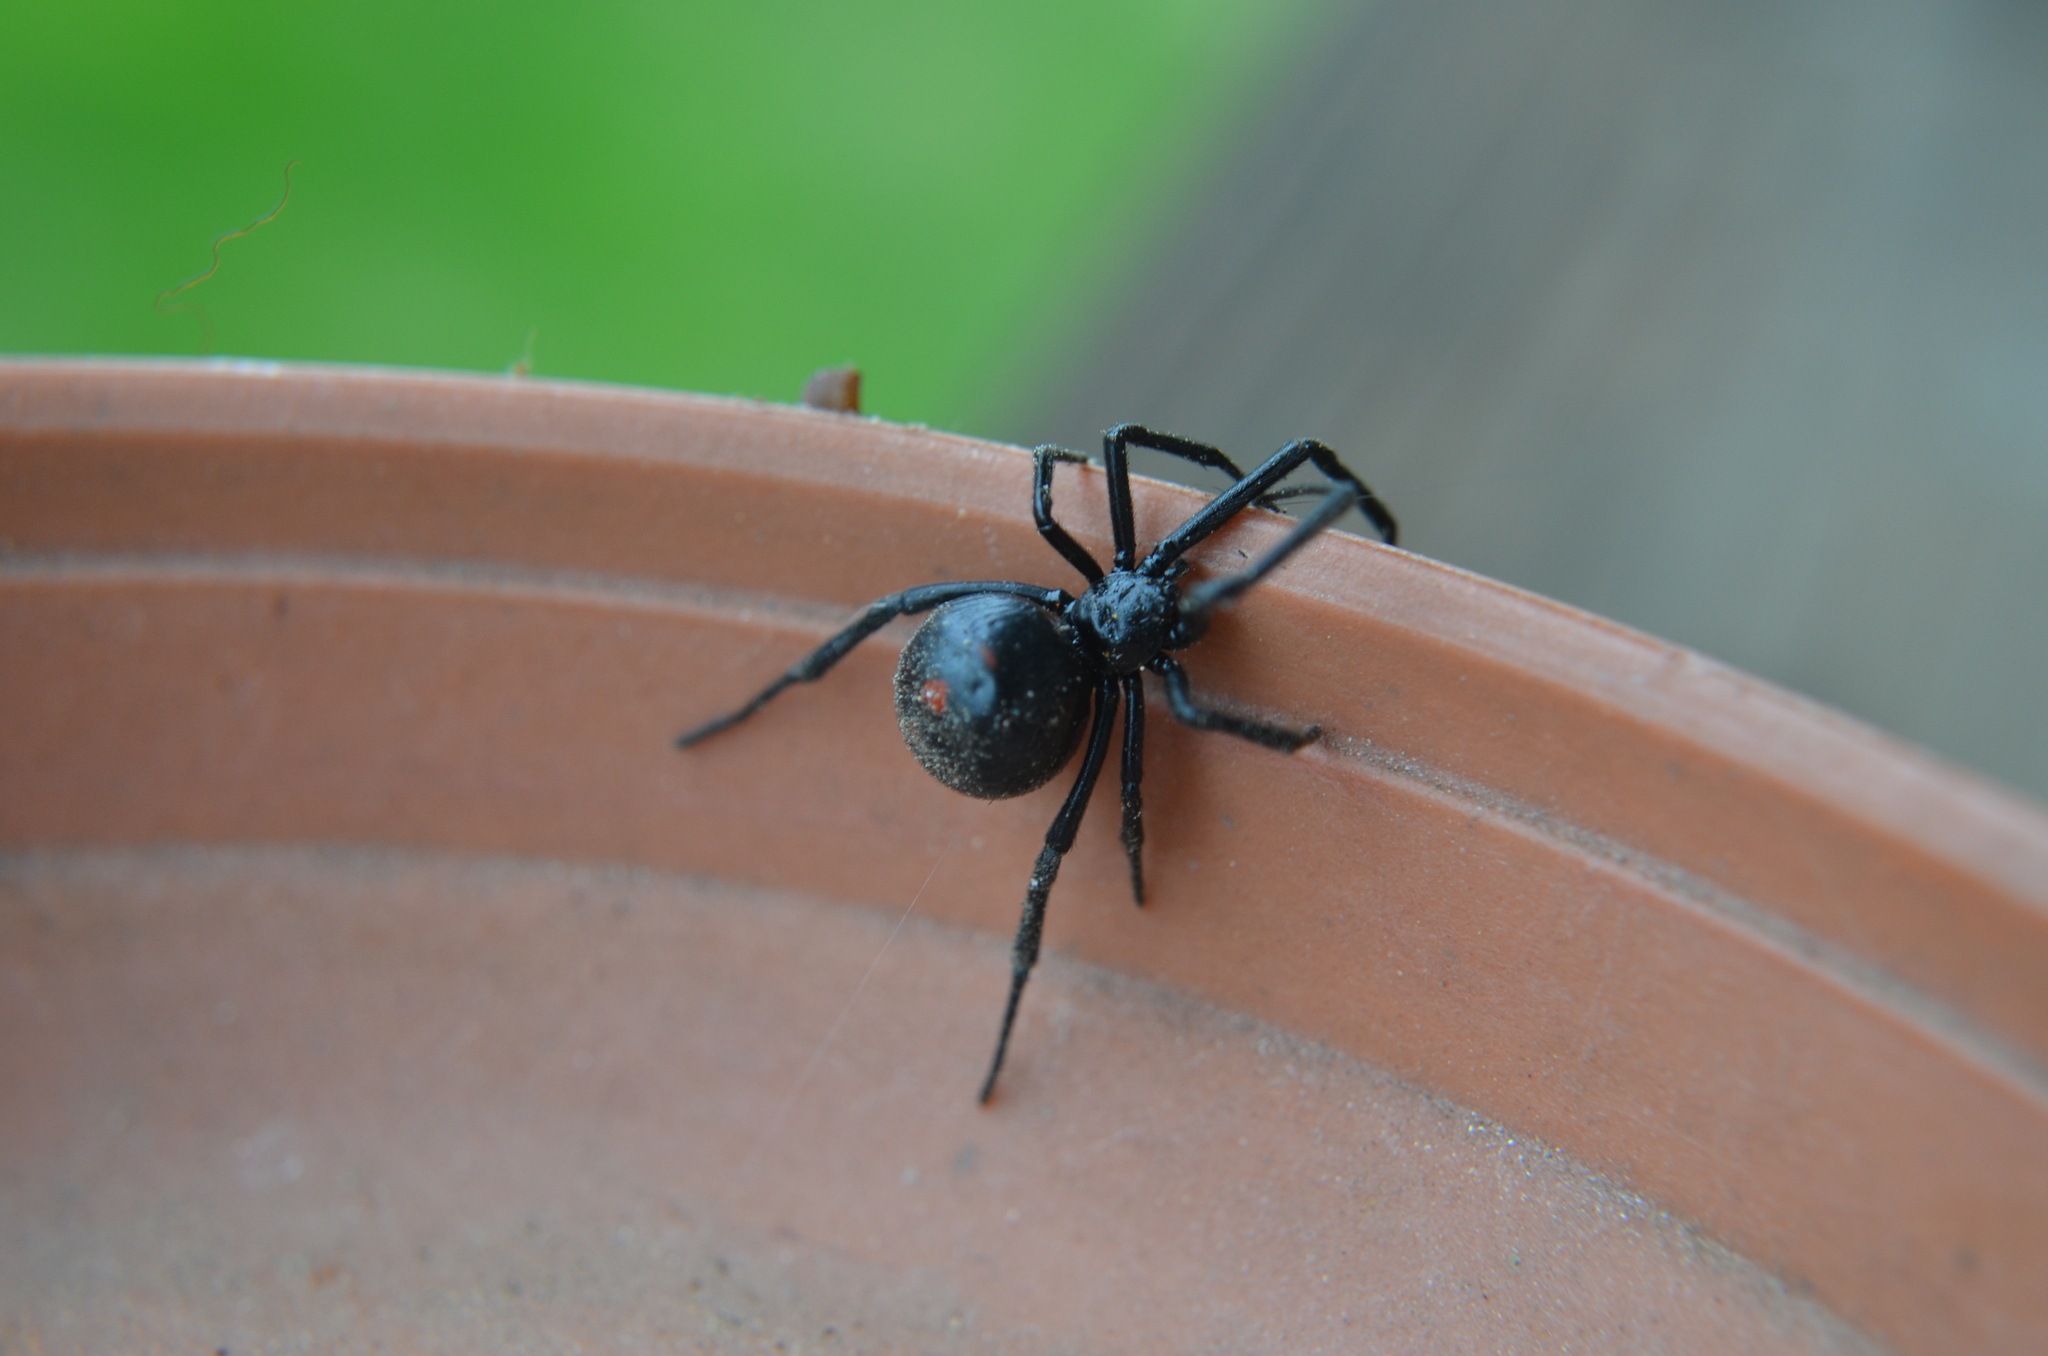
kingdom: Animalia
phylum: Arthropoda
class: Arachnida
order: Araneae
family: Theridiidae
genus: Latrodectus
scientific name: Latrodectus mactans
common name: Cobweb spiders
